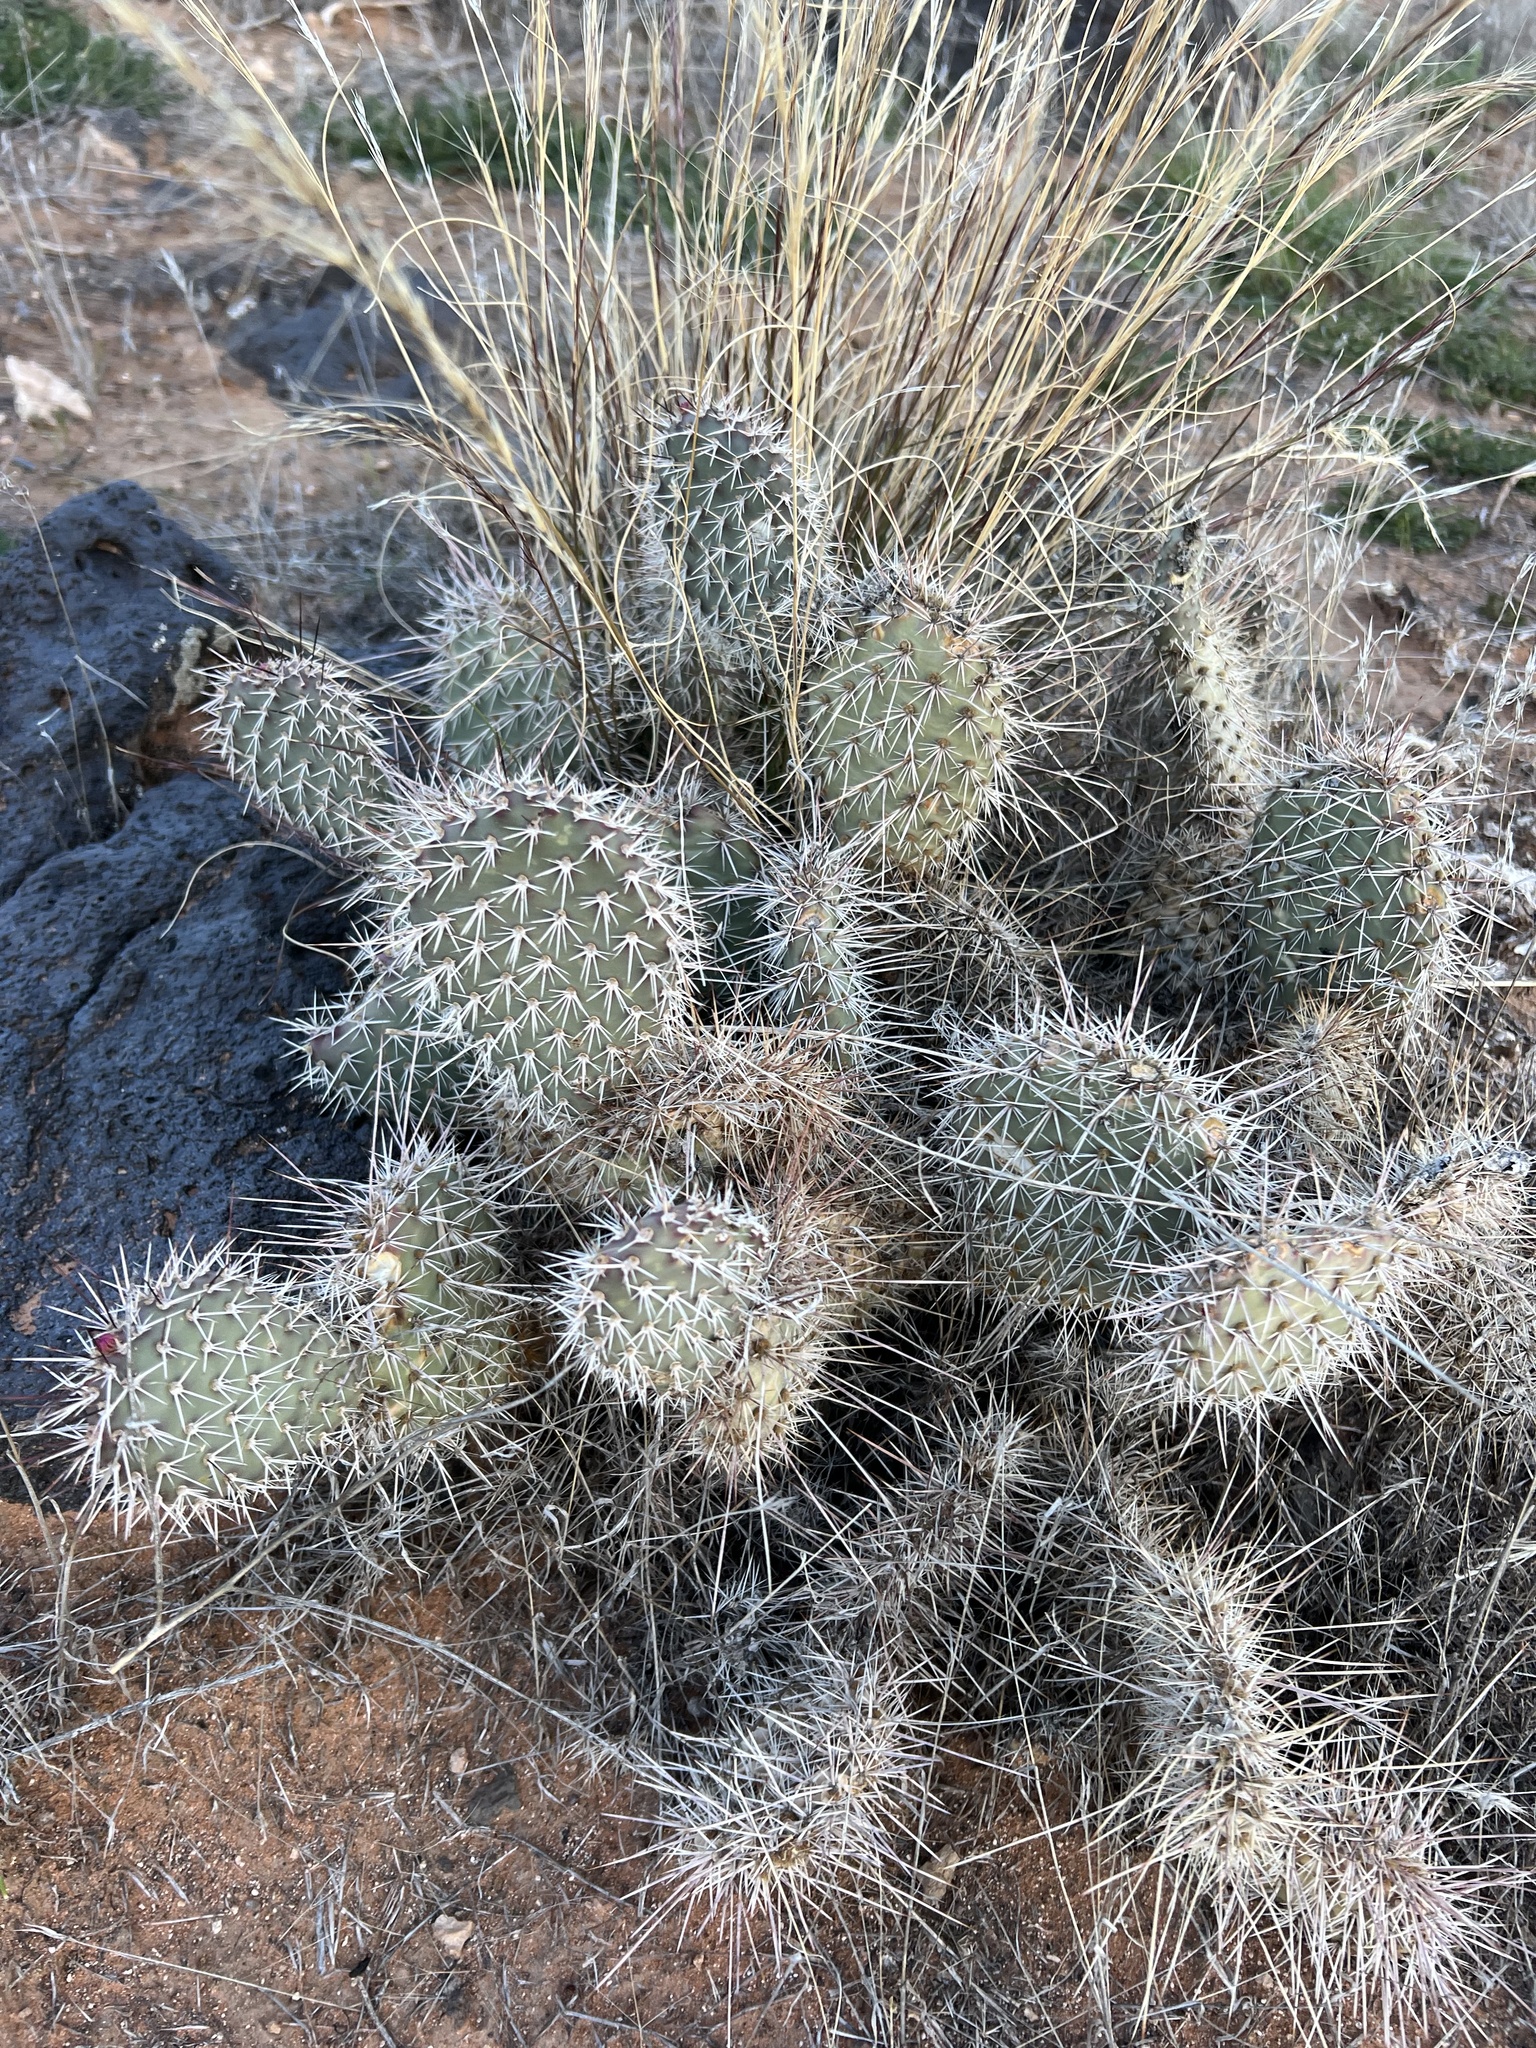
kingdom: Plantae
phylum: Tracheophyta
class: Magnoliopsida
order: Caryophyllales
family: Cactaceae
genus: Opuntia
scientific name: Opuntia polyacantha
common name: Plains prickly-pear
